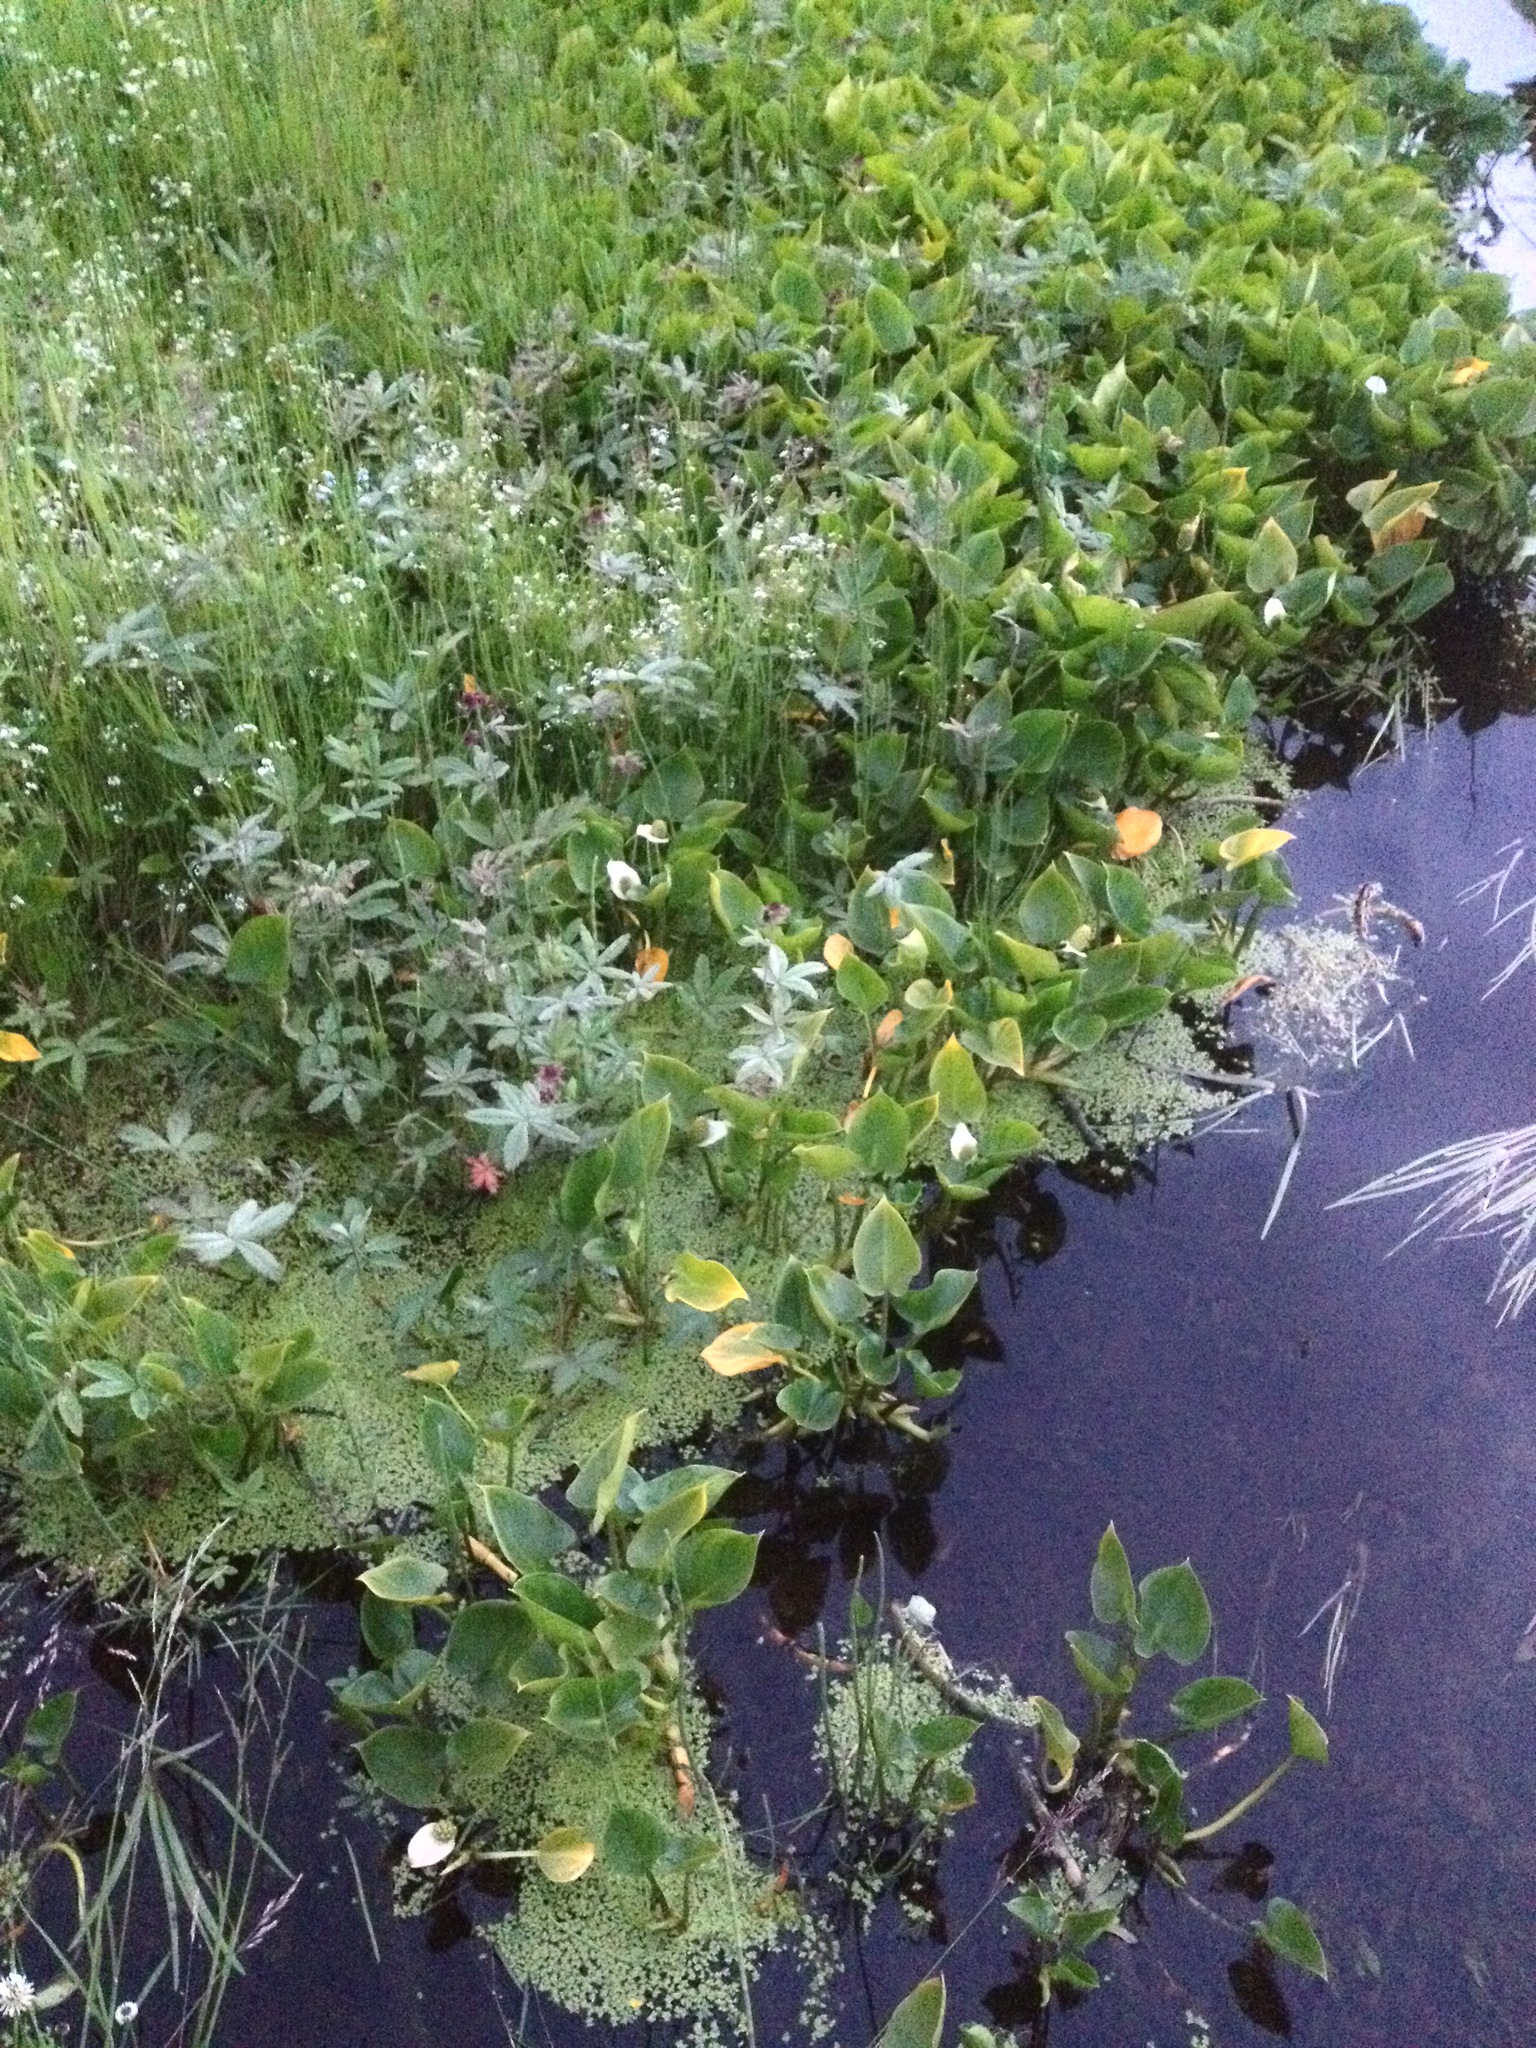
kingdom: Plantae
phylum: Tracheophyta
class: Liliopsida
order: Alismatales
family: Araceae
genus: Calla
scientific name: Calla palustris
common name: Bog arum
